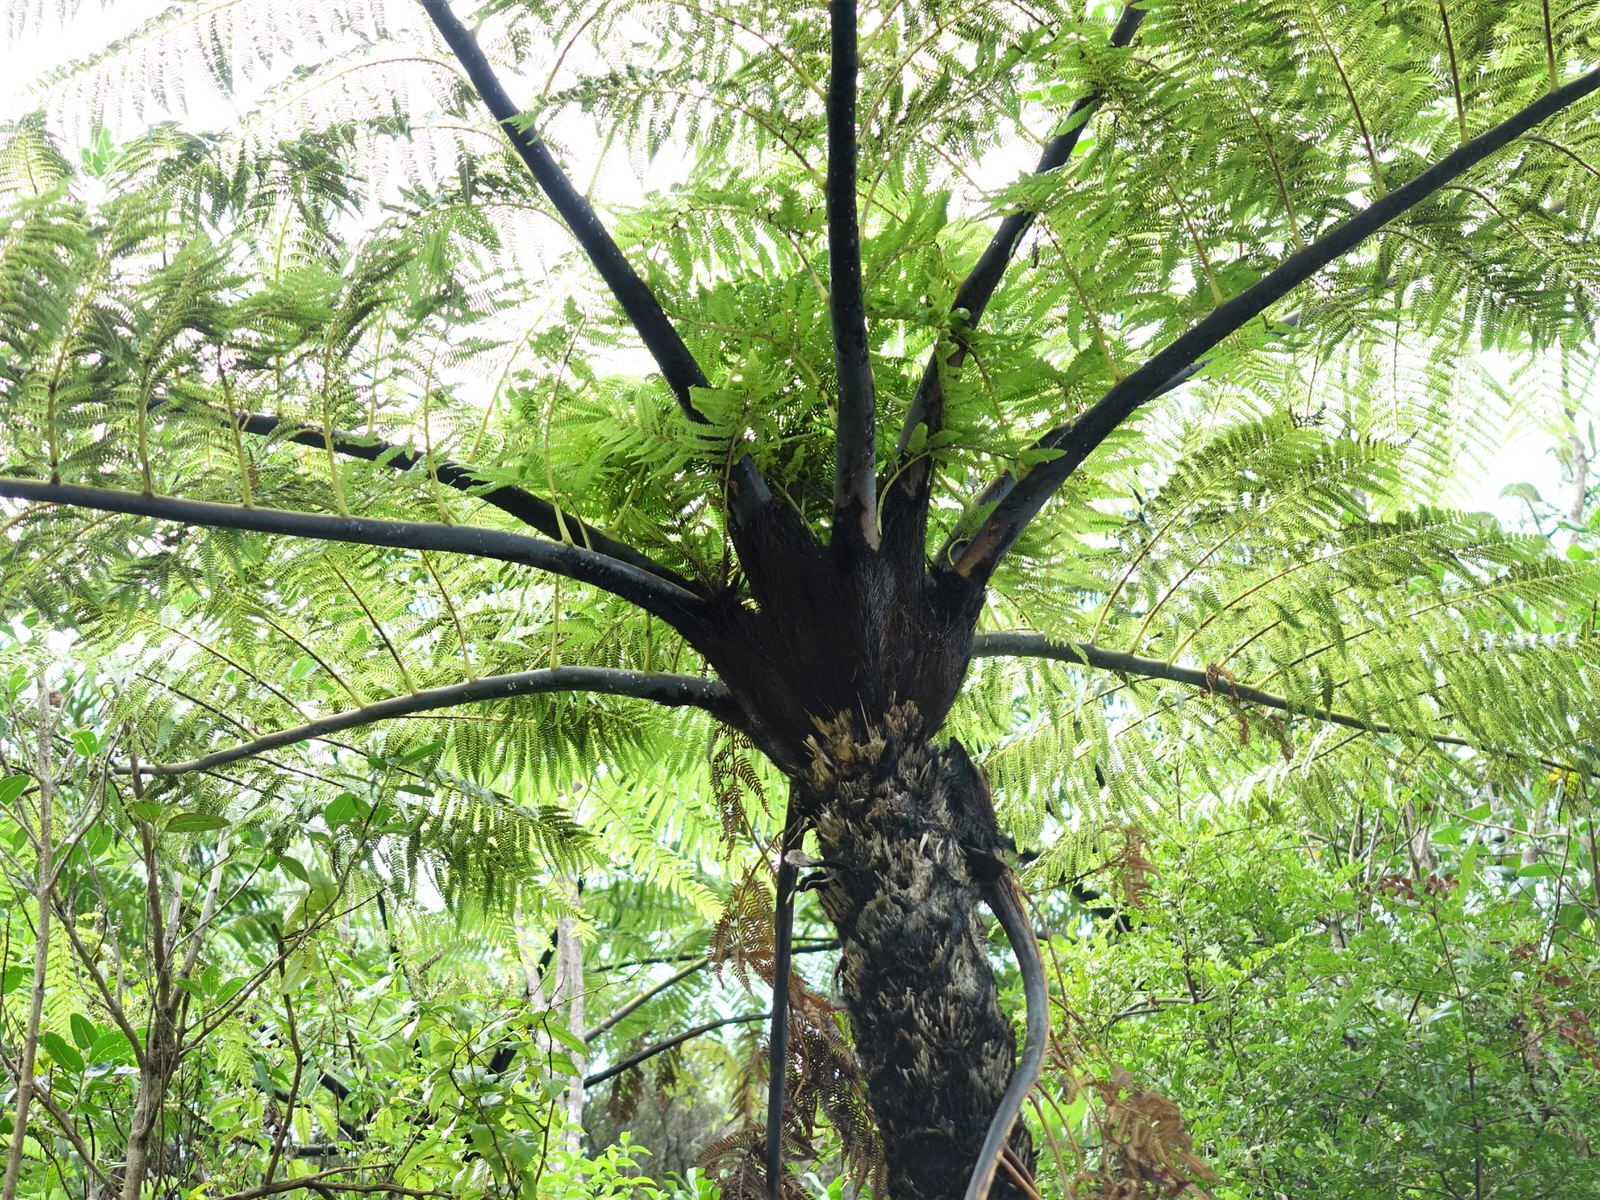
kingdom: Plantae
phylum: Tracheophyta
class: Polypodiopsida
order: Cyatheales
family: Cyatheaceae
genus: Sphaeropteris
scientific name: Sphaeropteris medullaris
